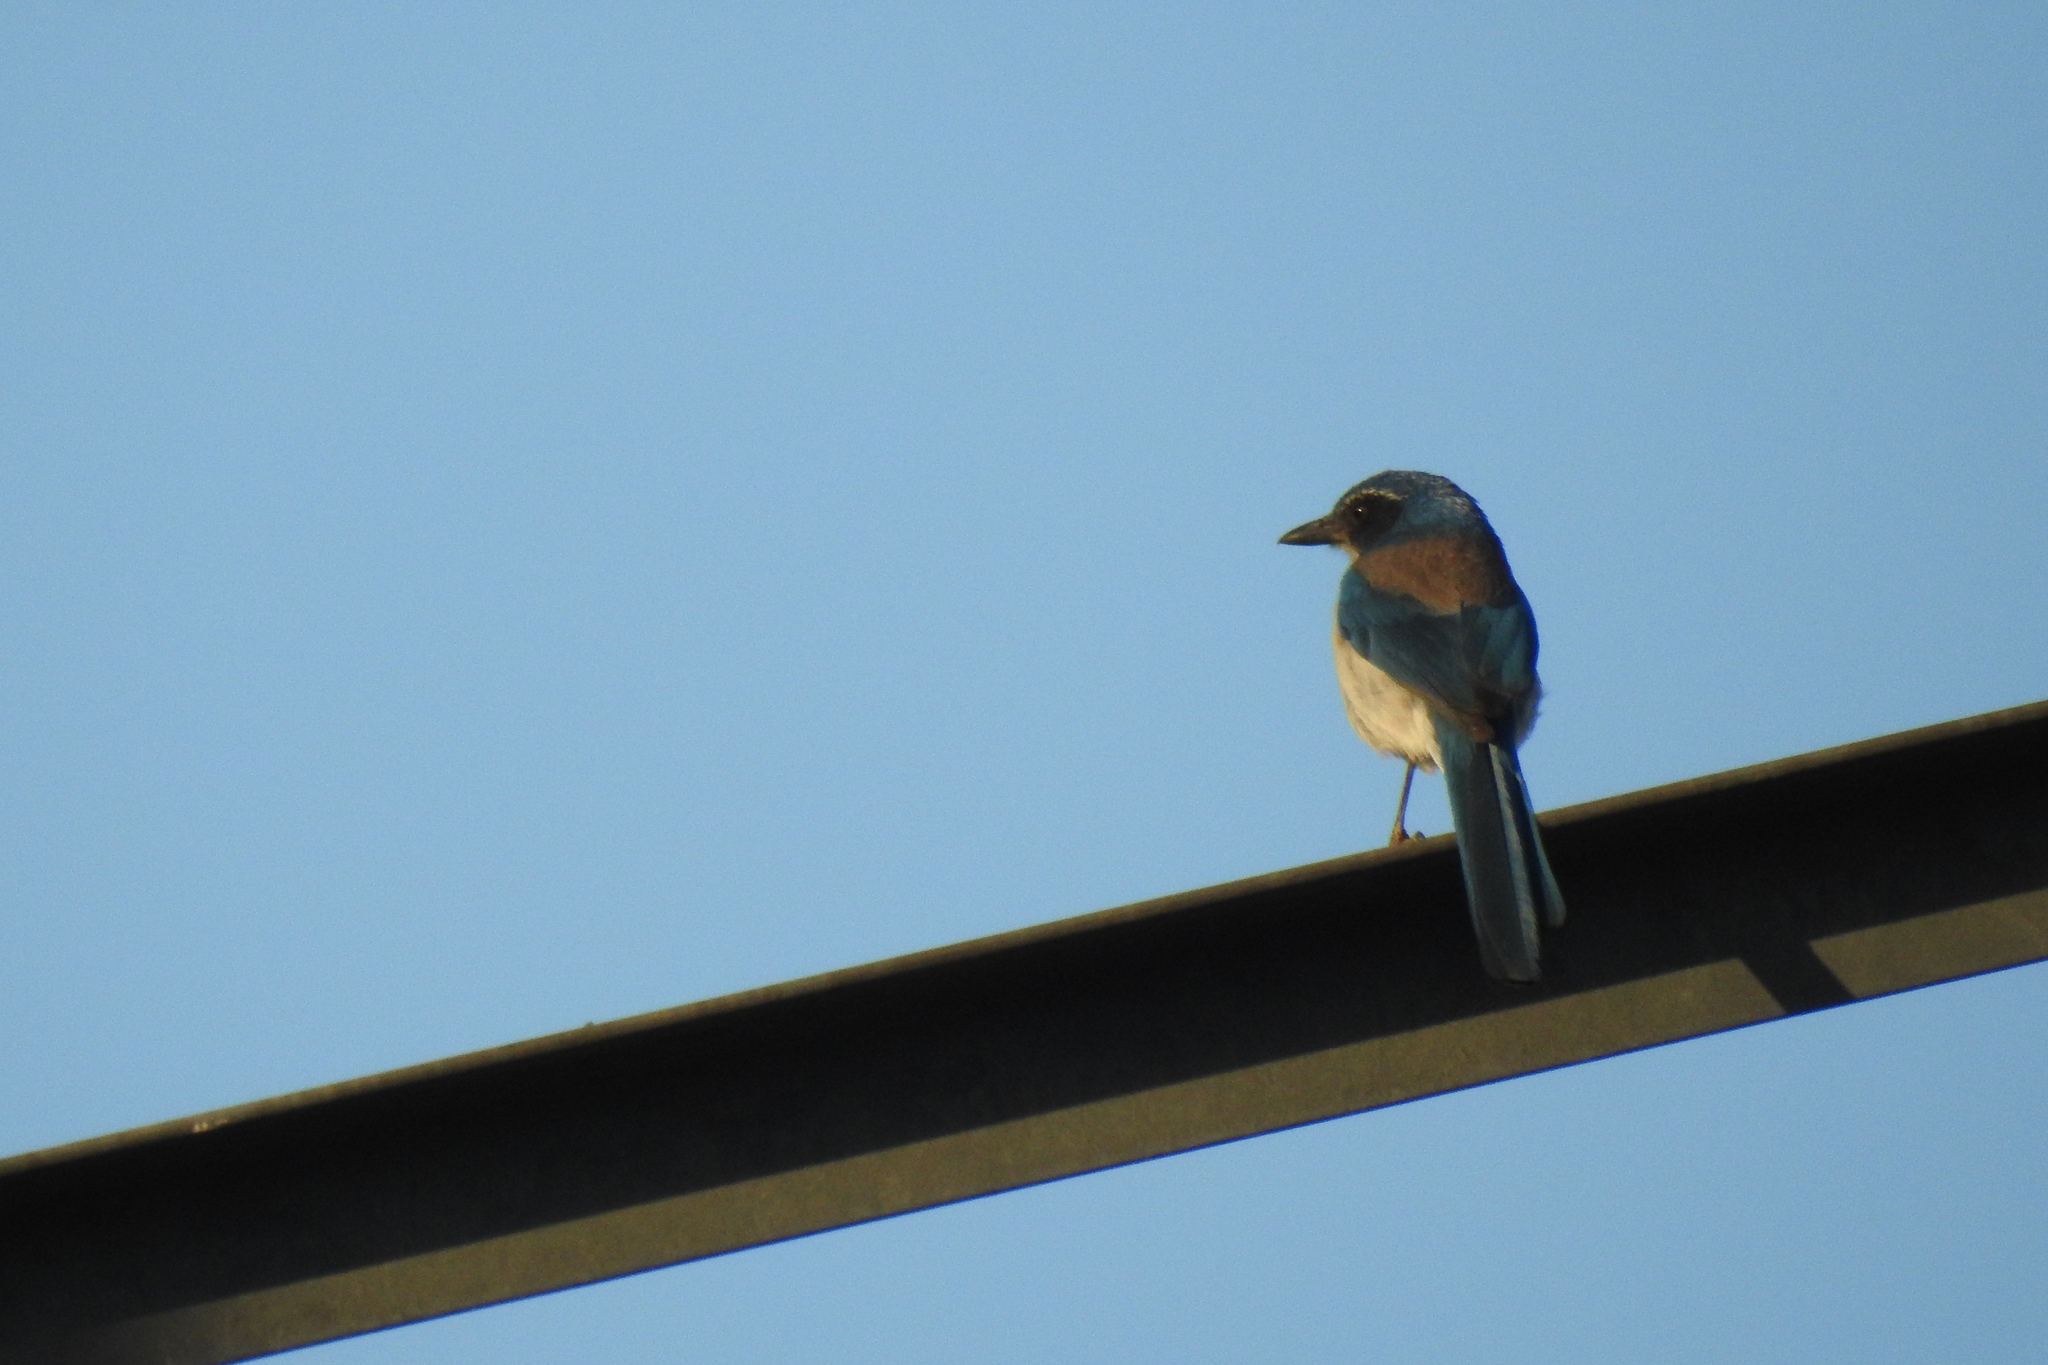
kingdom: Animalia
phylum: Chordata
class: Aves
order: Passeriformes
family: Corvidae
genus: Aphelocoma
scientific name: Aphelocoma californica
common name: California scrub-jay
